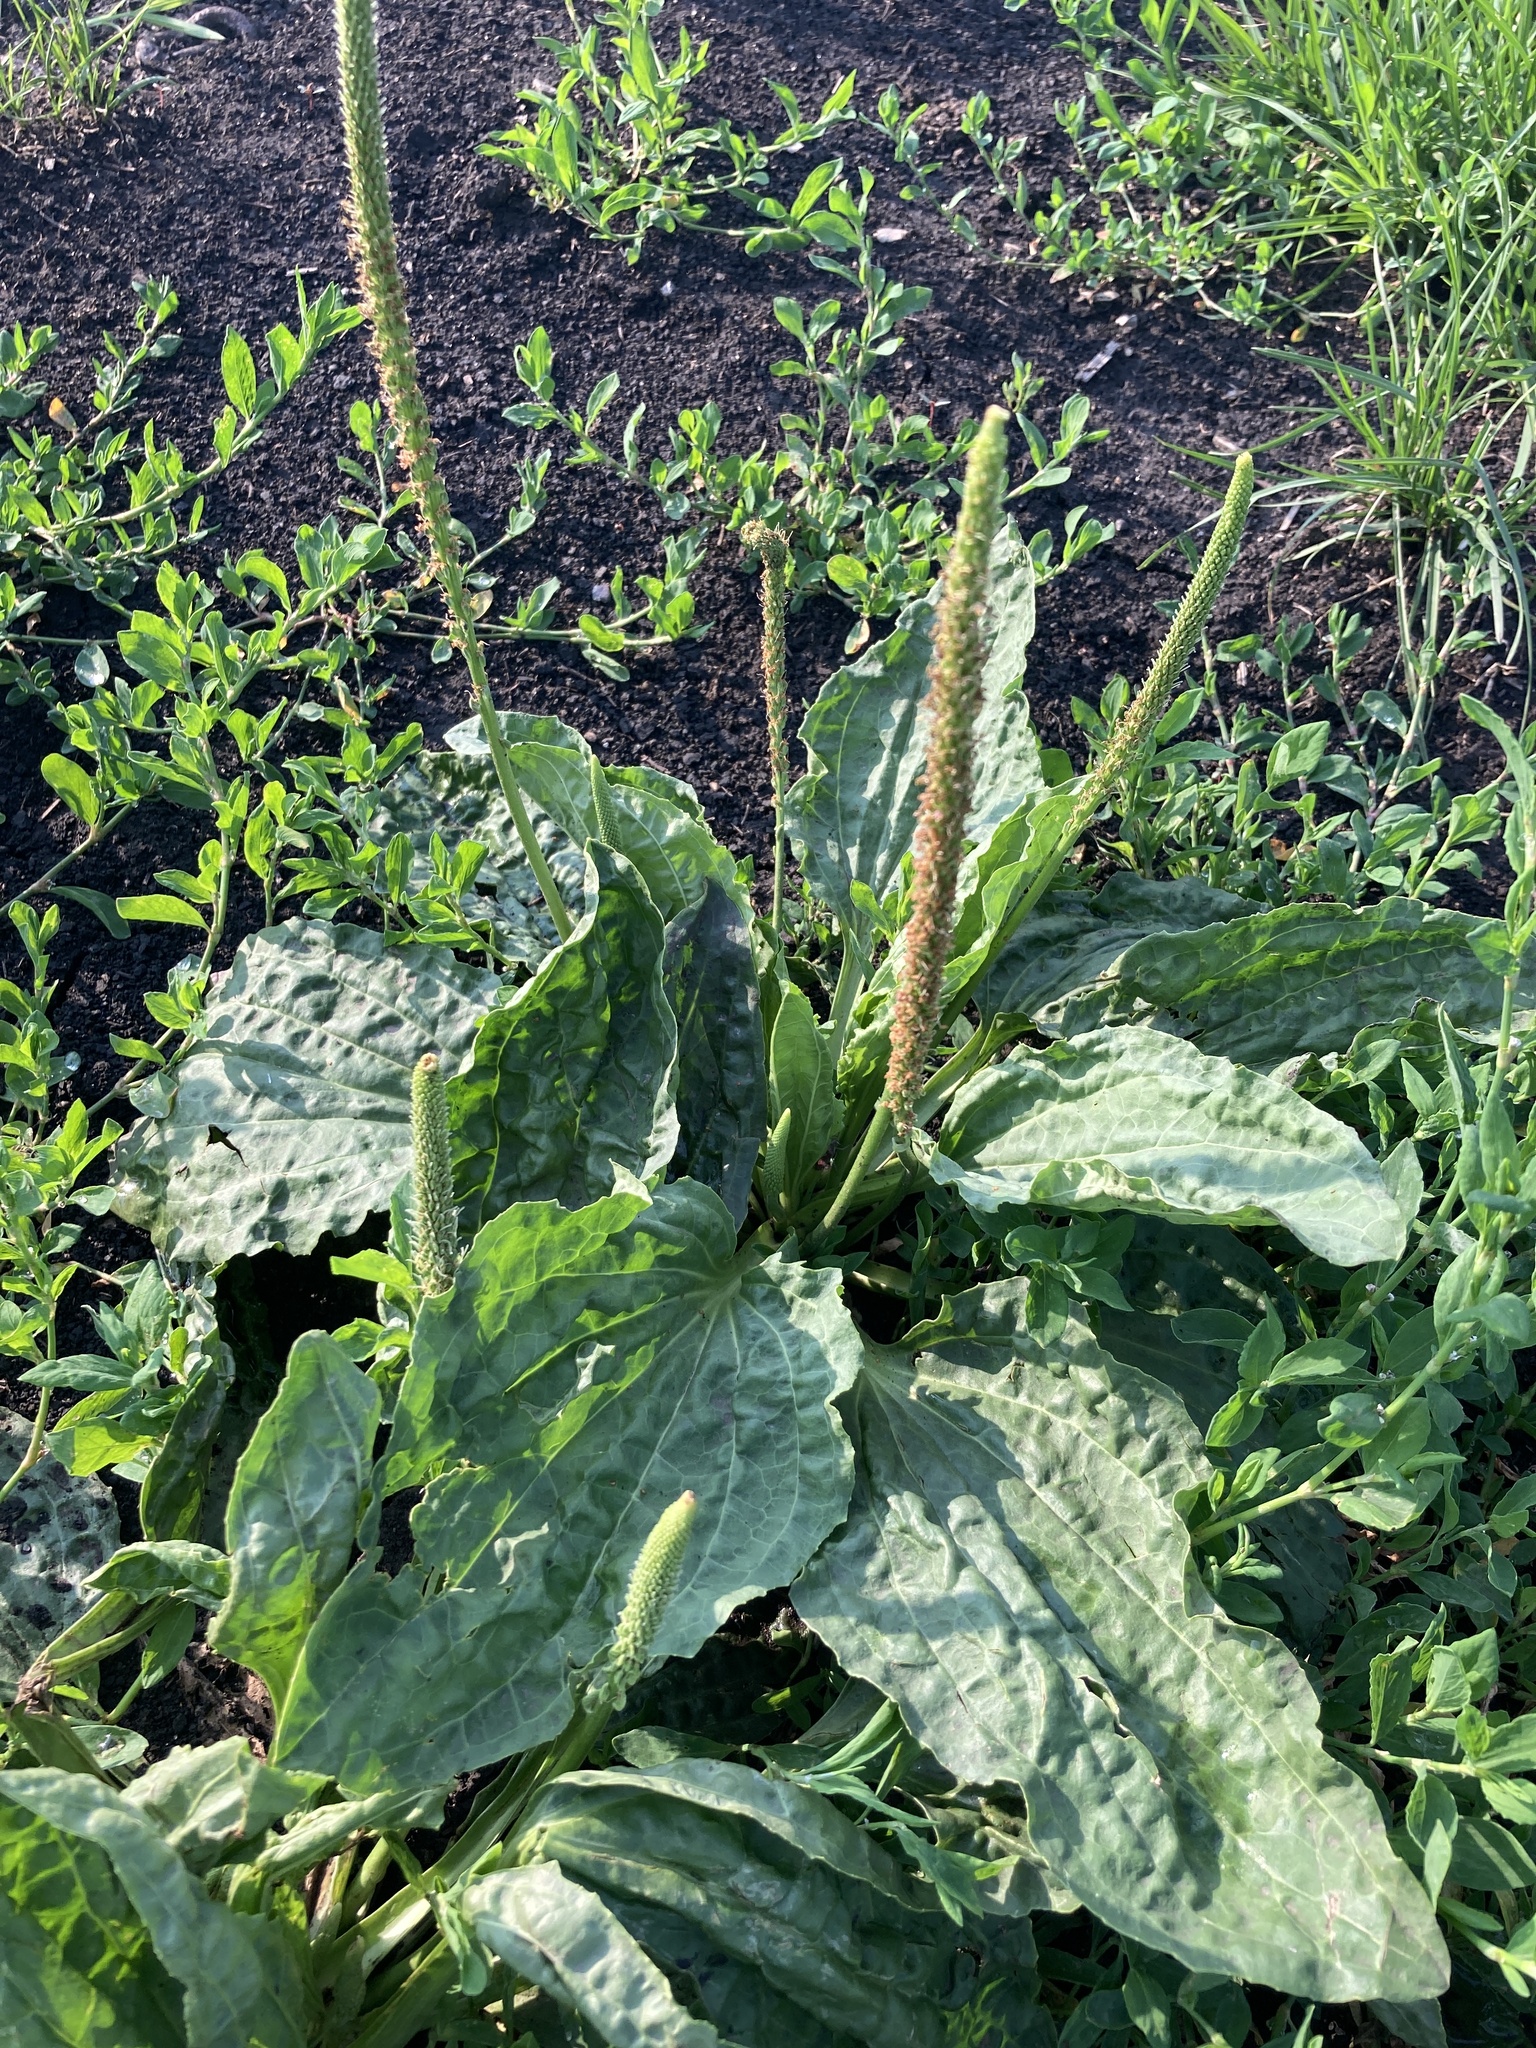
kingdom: Plantae
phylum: Tracheophyta
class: Magnoliopsida
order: Lamiales
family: Plantaginaceae
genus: Plantago
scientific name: Plantago major
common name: Common plantain
